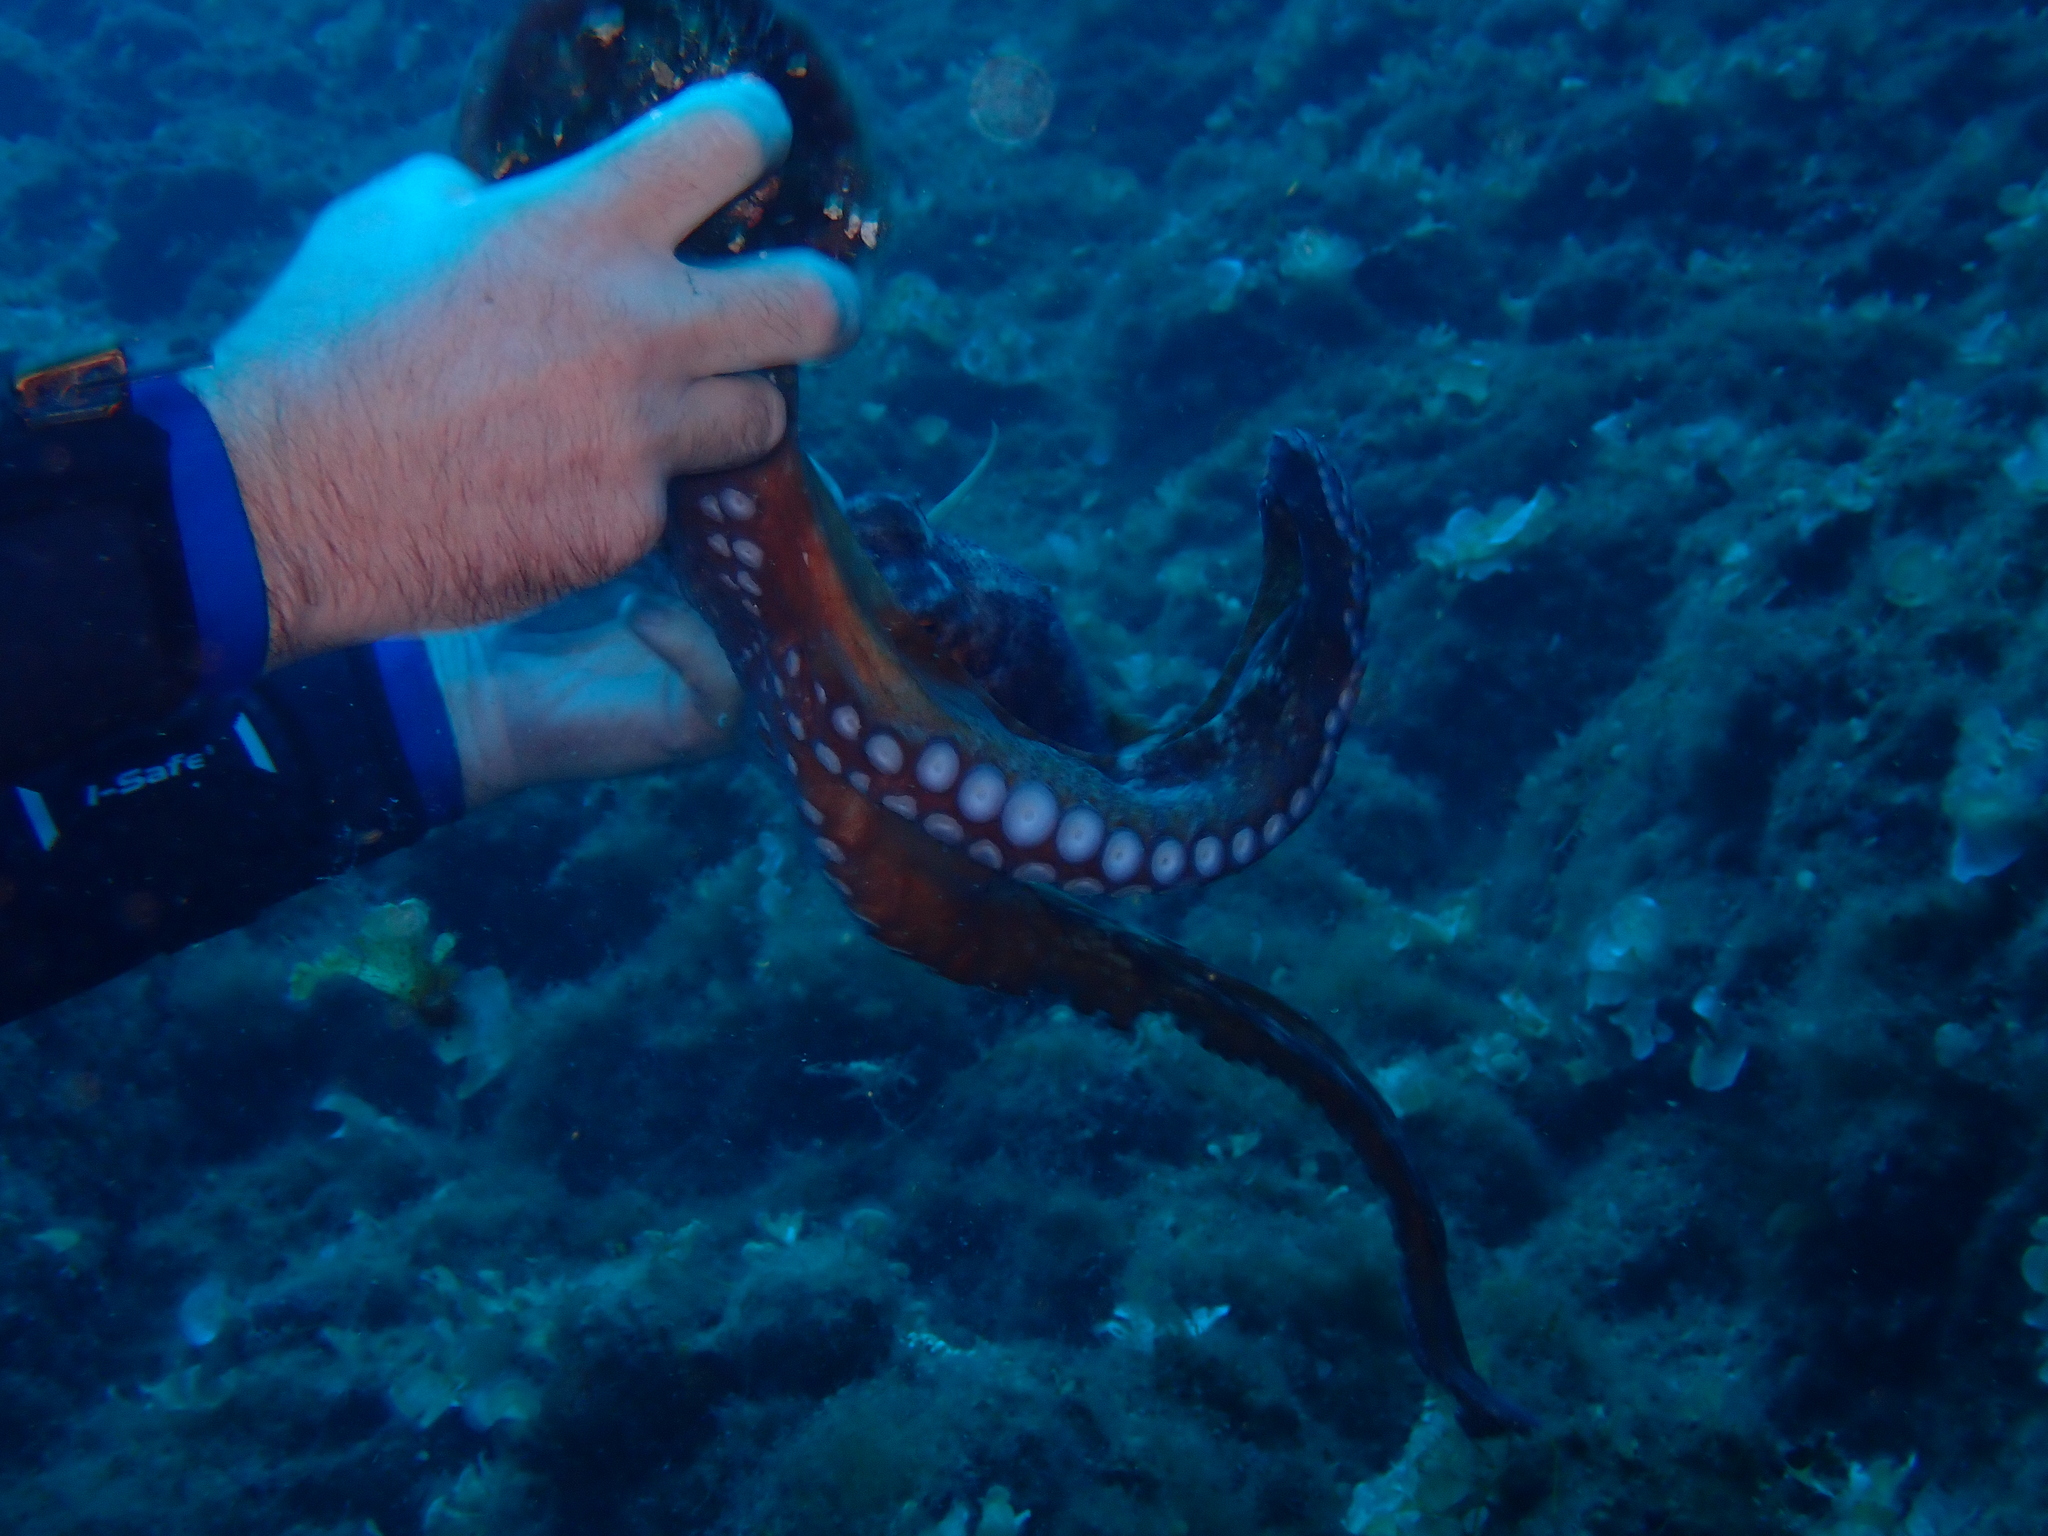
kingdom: Animalia
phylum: Mollusca
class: Cephalopoda
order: Octopoda
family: Octopodidae
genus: Octopus
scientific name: Octopus vulgaris
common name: Common octopus
